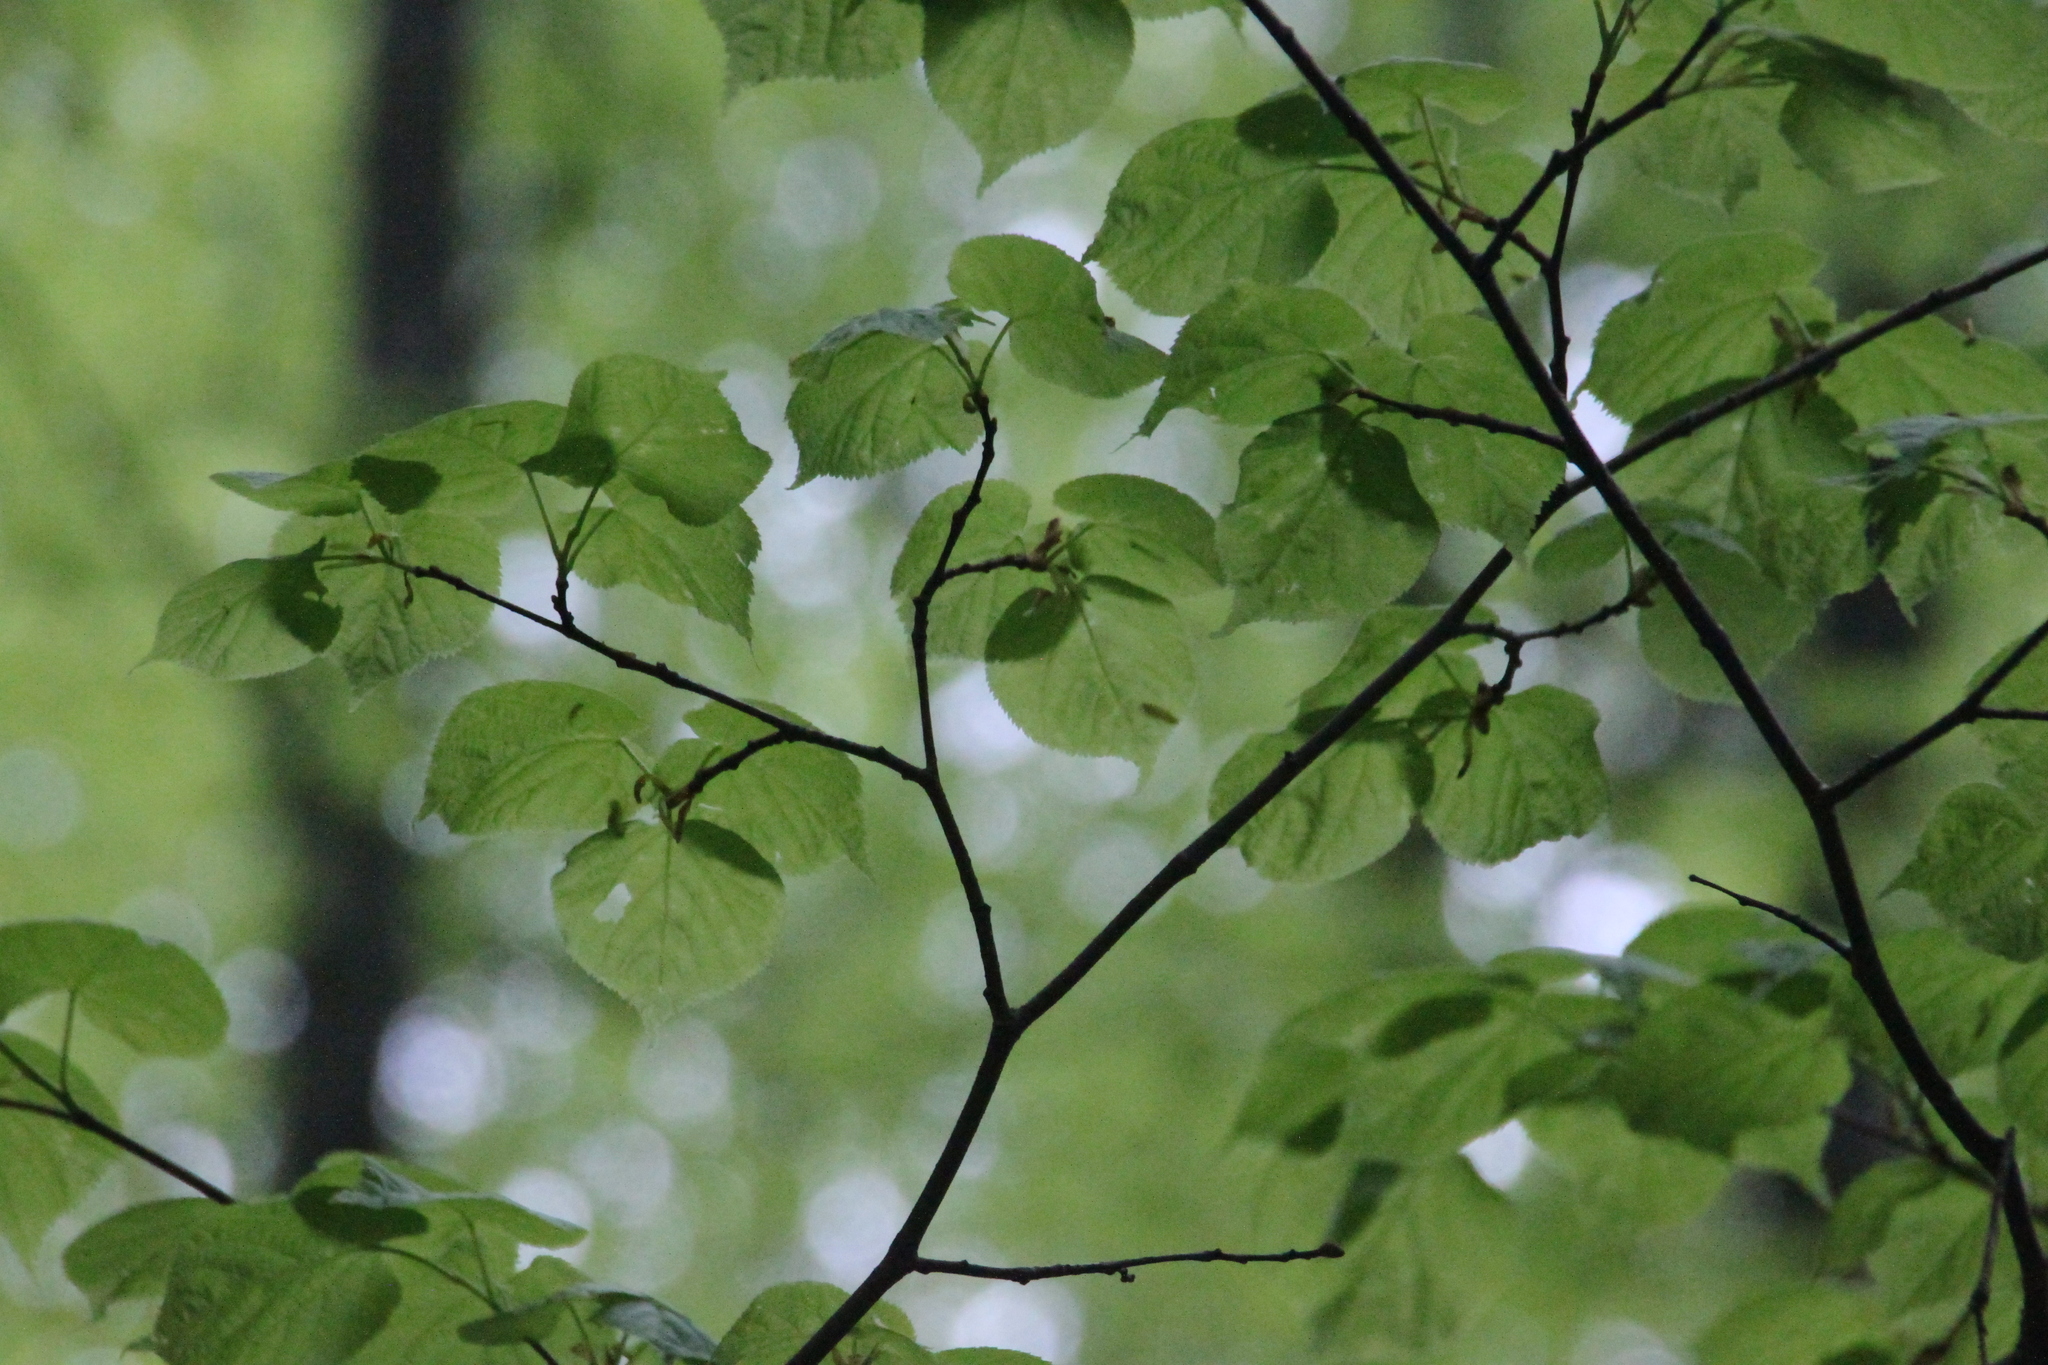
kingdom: Plantae
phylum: Tracheophyta
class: Magnoliopsida
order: Malvales
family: Malvaceae
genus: Tilia
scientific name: Tilia cordata
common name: Small-leaved lime
